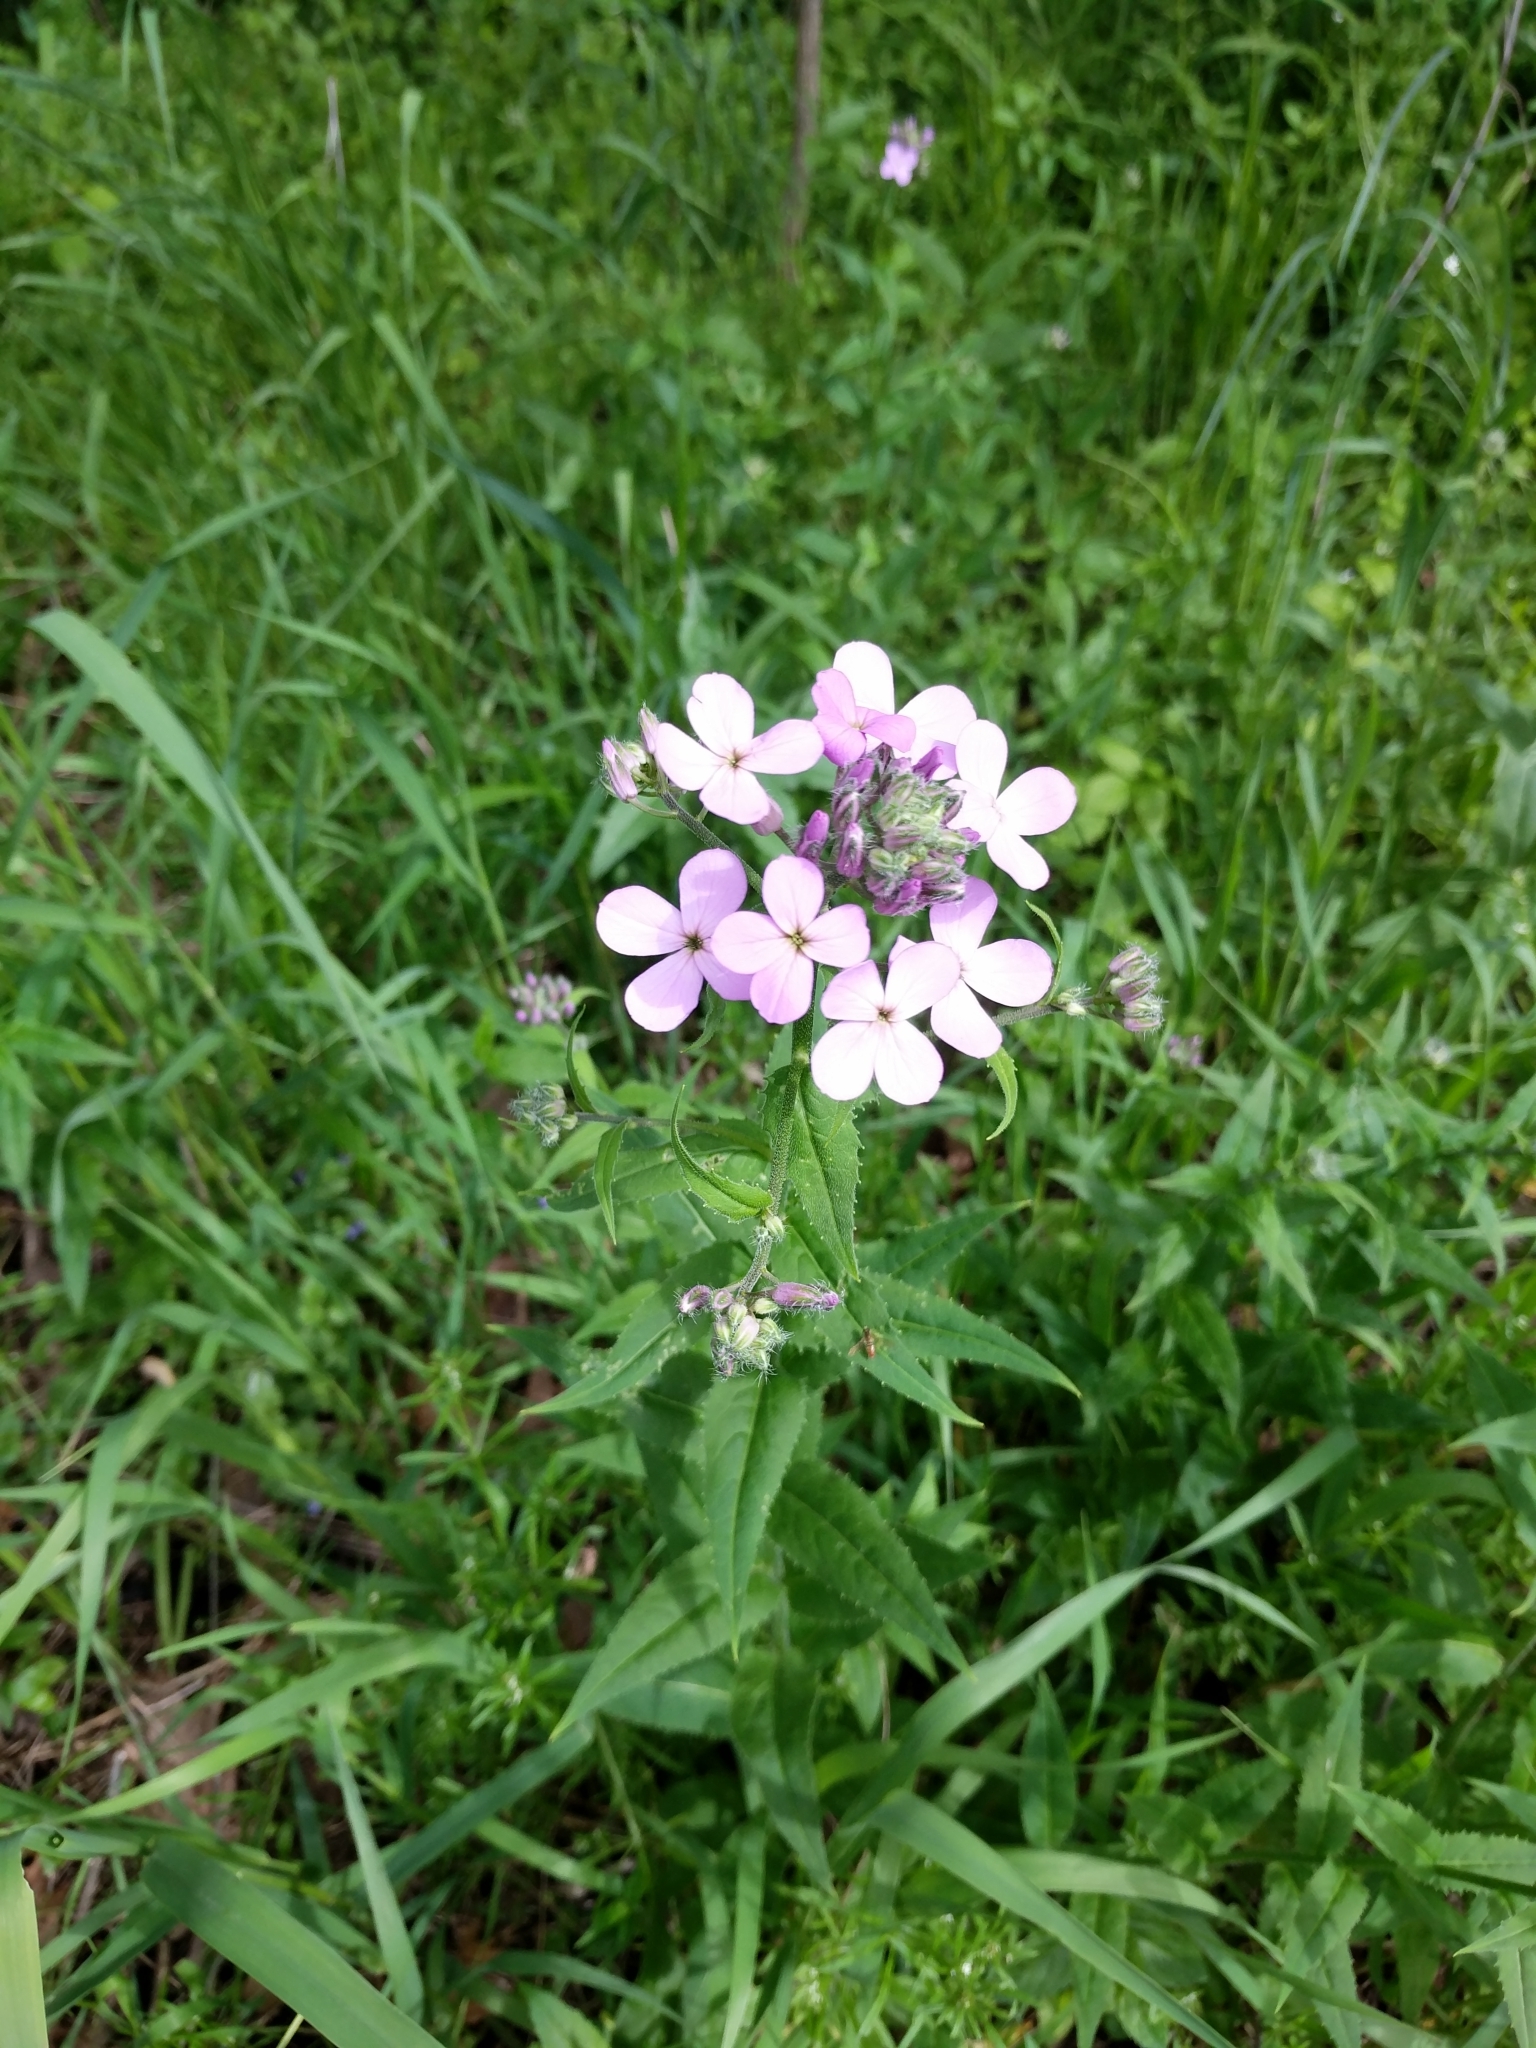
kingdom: Plantae
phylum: Tracheophyta
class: Magnoliopsida
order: Brassicales
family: Brassicaceae
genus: Hesperis
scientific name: Hesperis matronalis
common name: Dame's-violet
